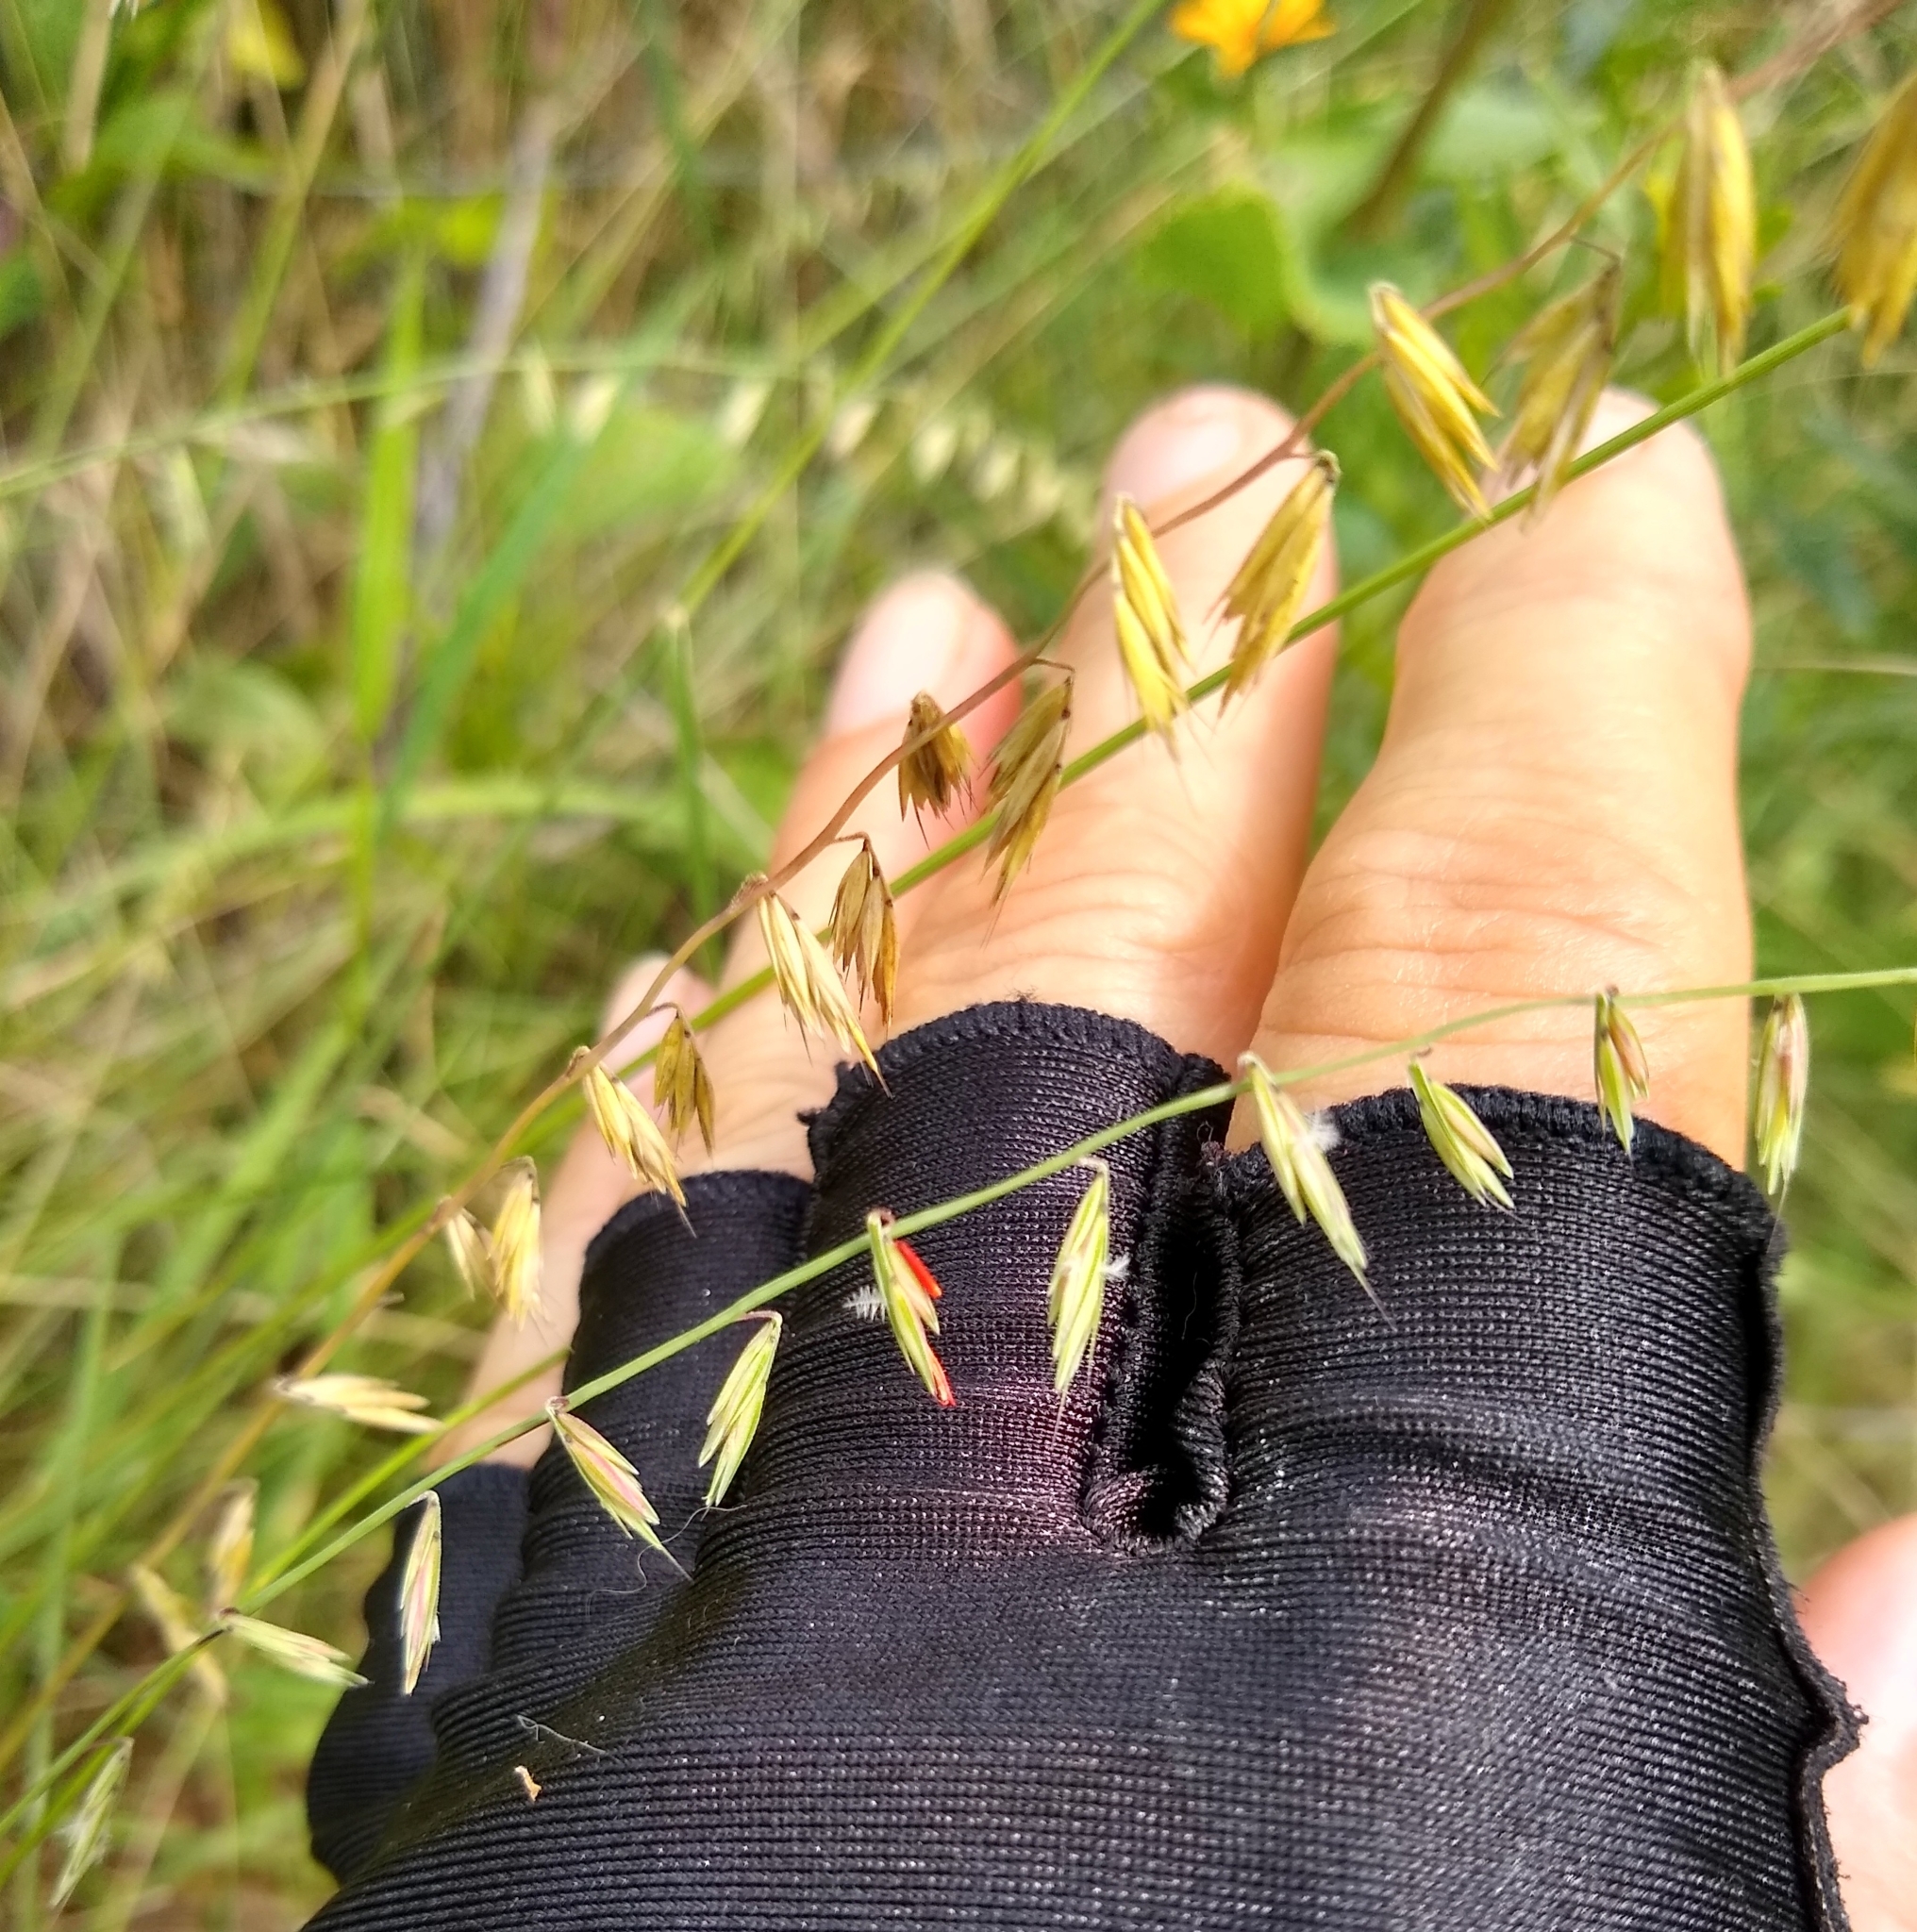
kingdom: Plantae
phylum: Tracheophyta
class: Liliopsida
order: Poales
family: Poaceae
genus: Bouteloua
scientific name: Bouteloua curtipendula
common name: Side-oats grama
